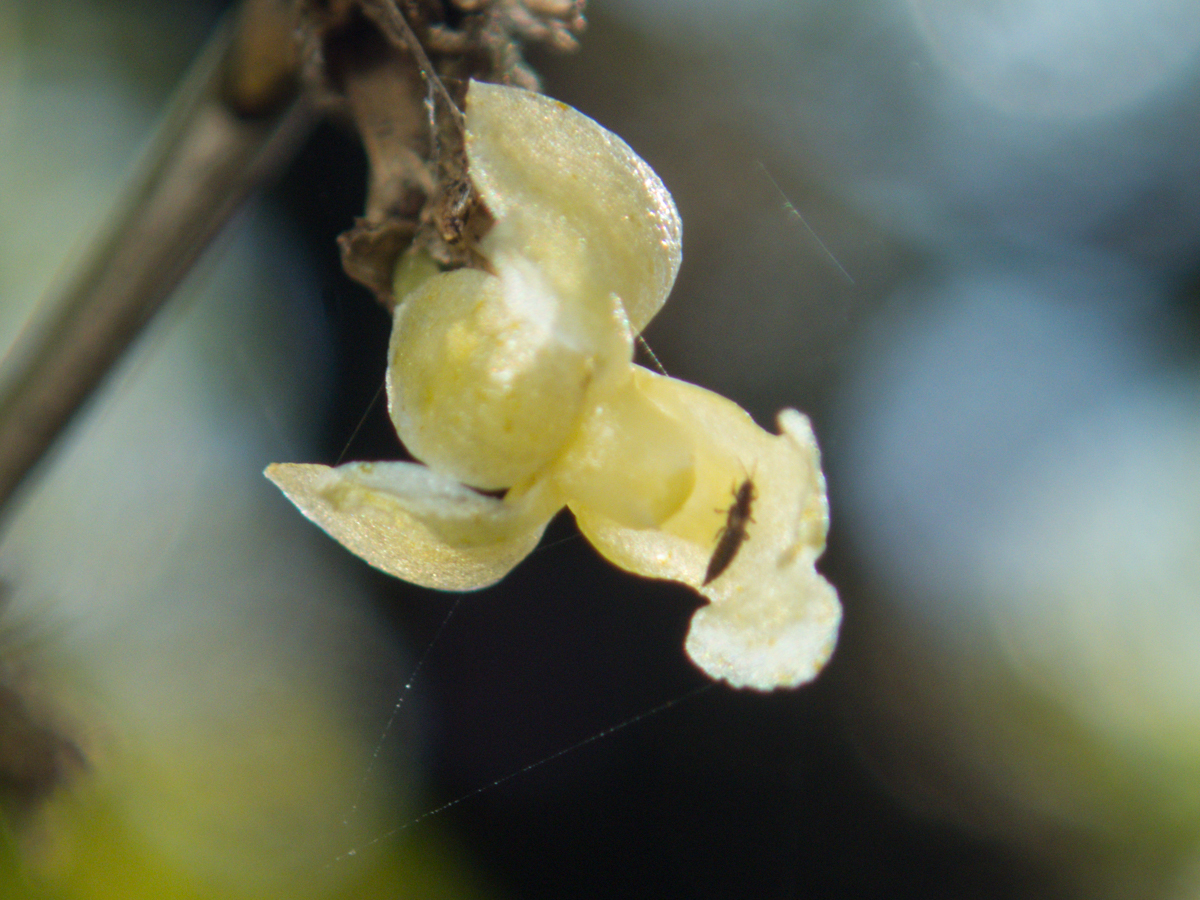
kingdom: Plantae
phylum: Tracheophyta
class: Liliopsida
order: Asparagales
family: Orchidaceae
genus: Dendrobium
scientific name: Dendrobium aloifolium
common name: Aloe-like dendrobium
